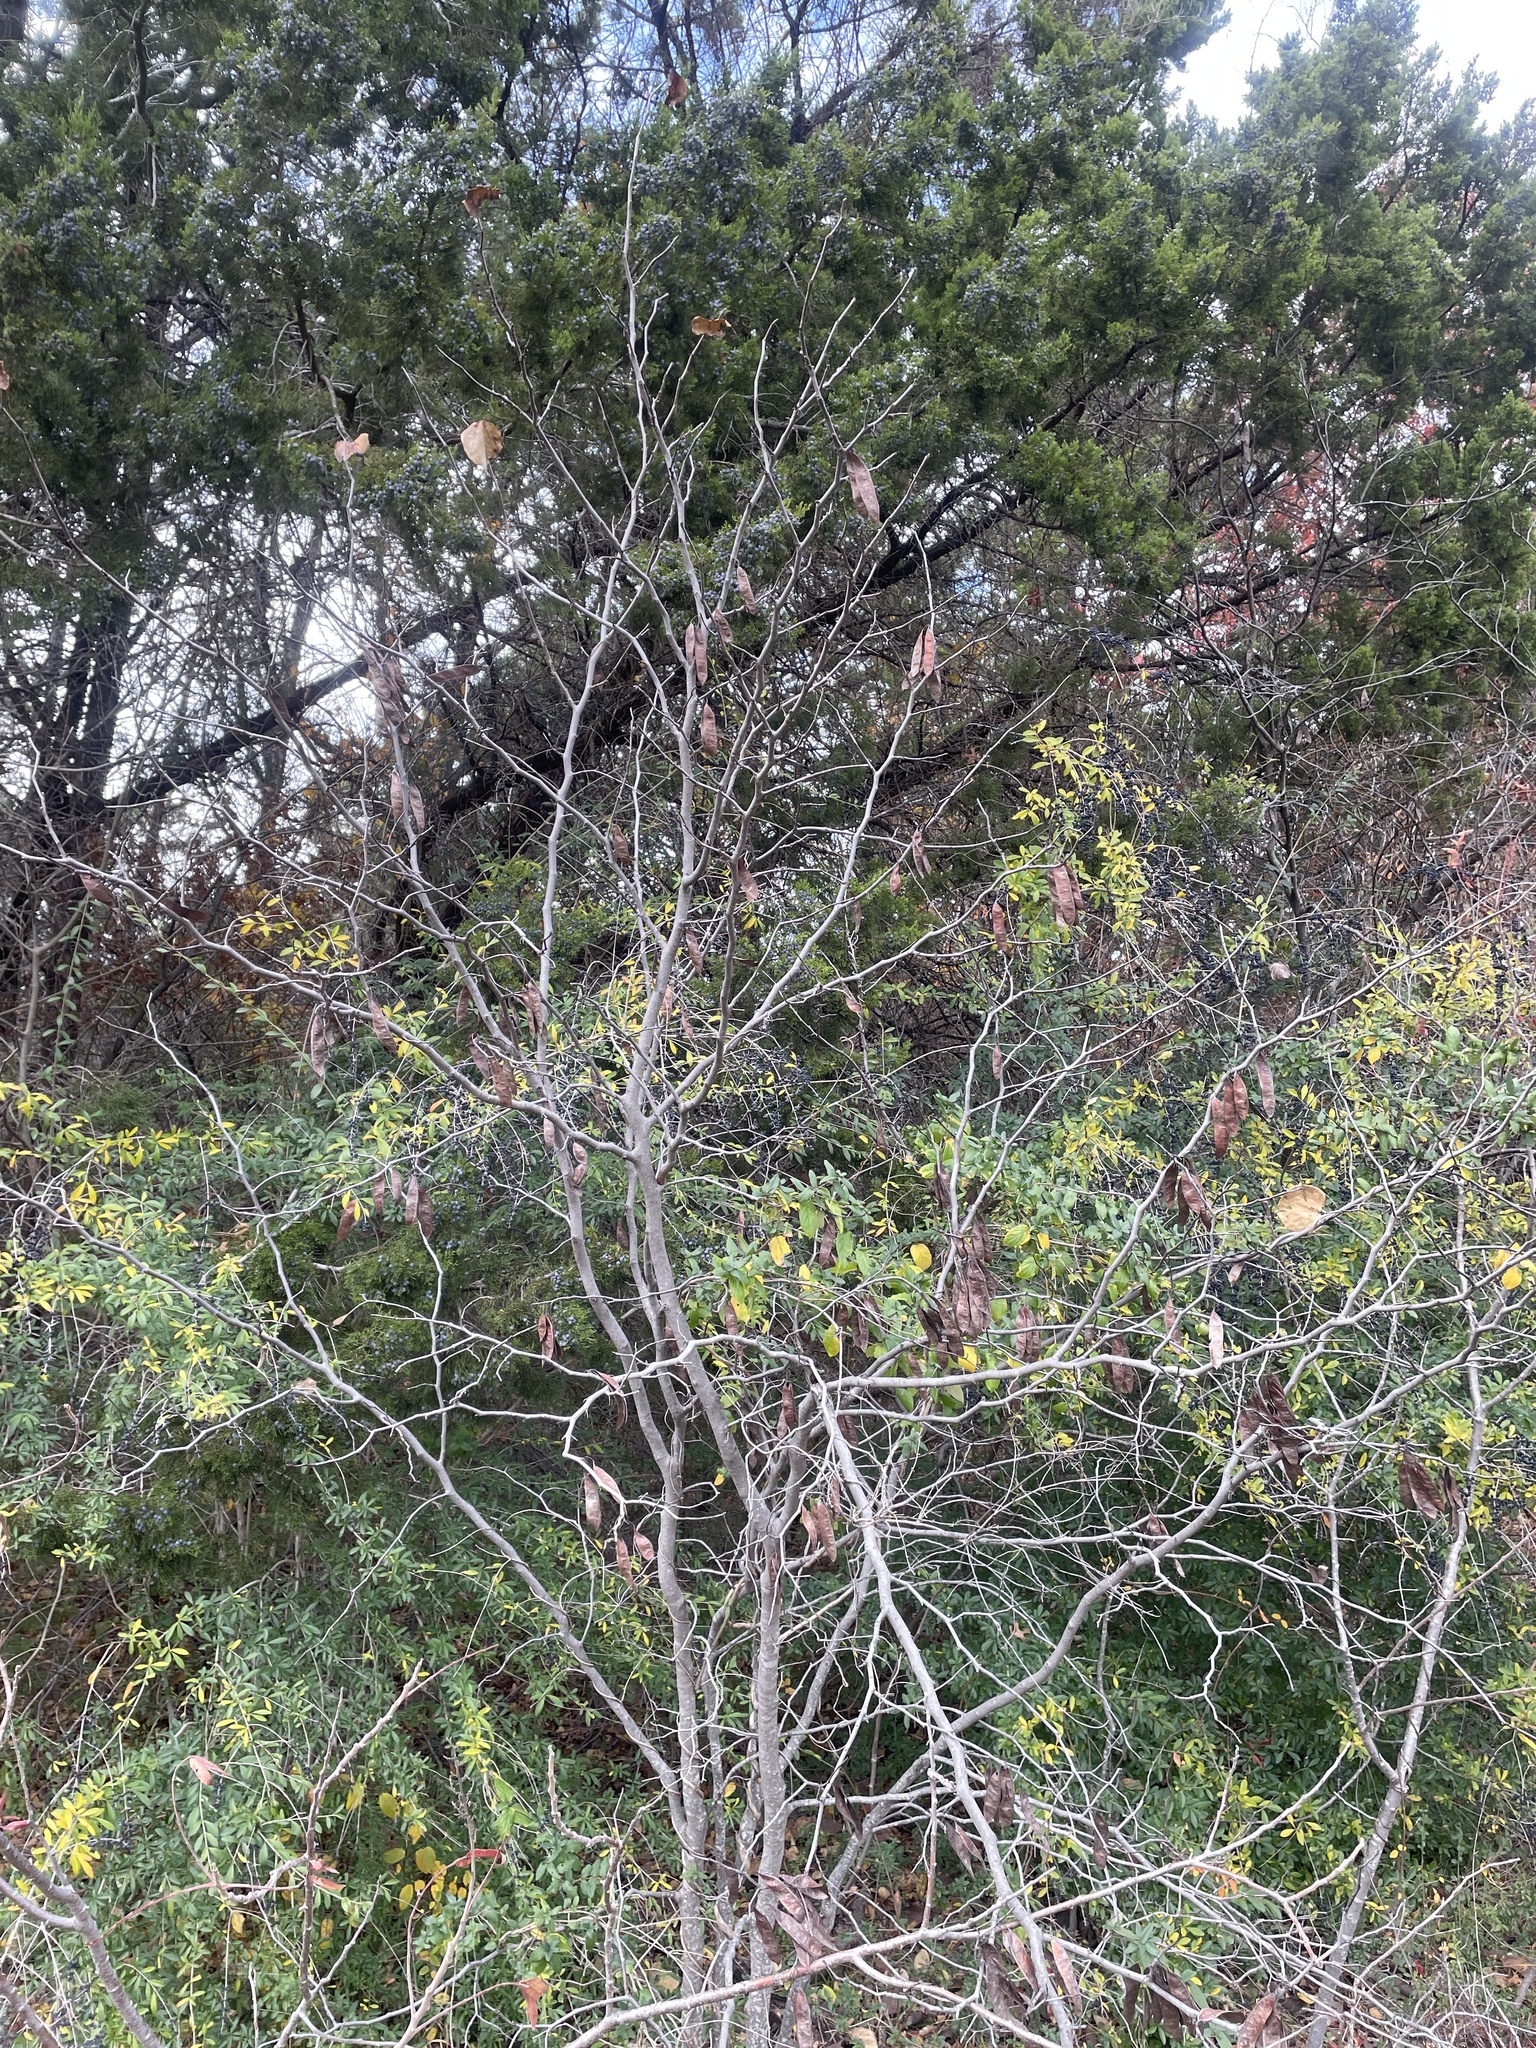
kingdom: Plantae
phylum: Tracheophyta
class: Magnoliopsida
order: Fabales
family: Fabaceae
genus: Cercis
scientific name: Cercis canadensis
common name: Eastern redbud
